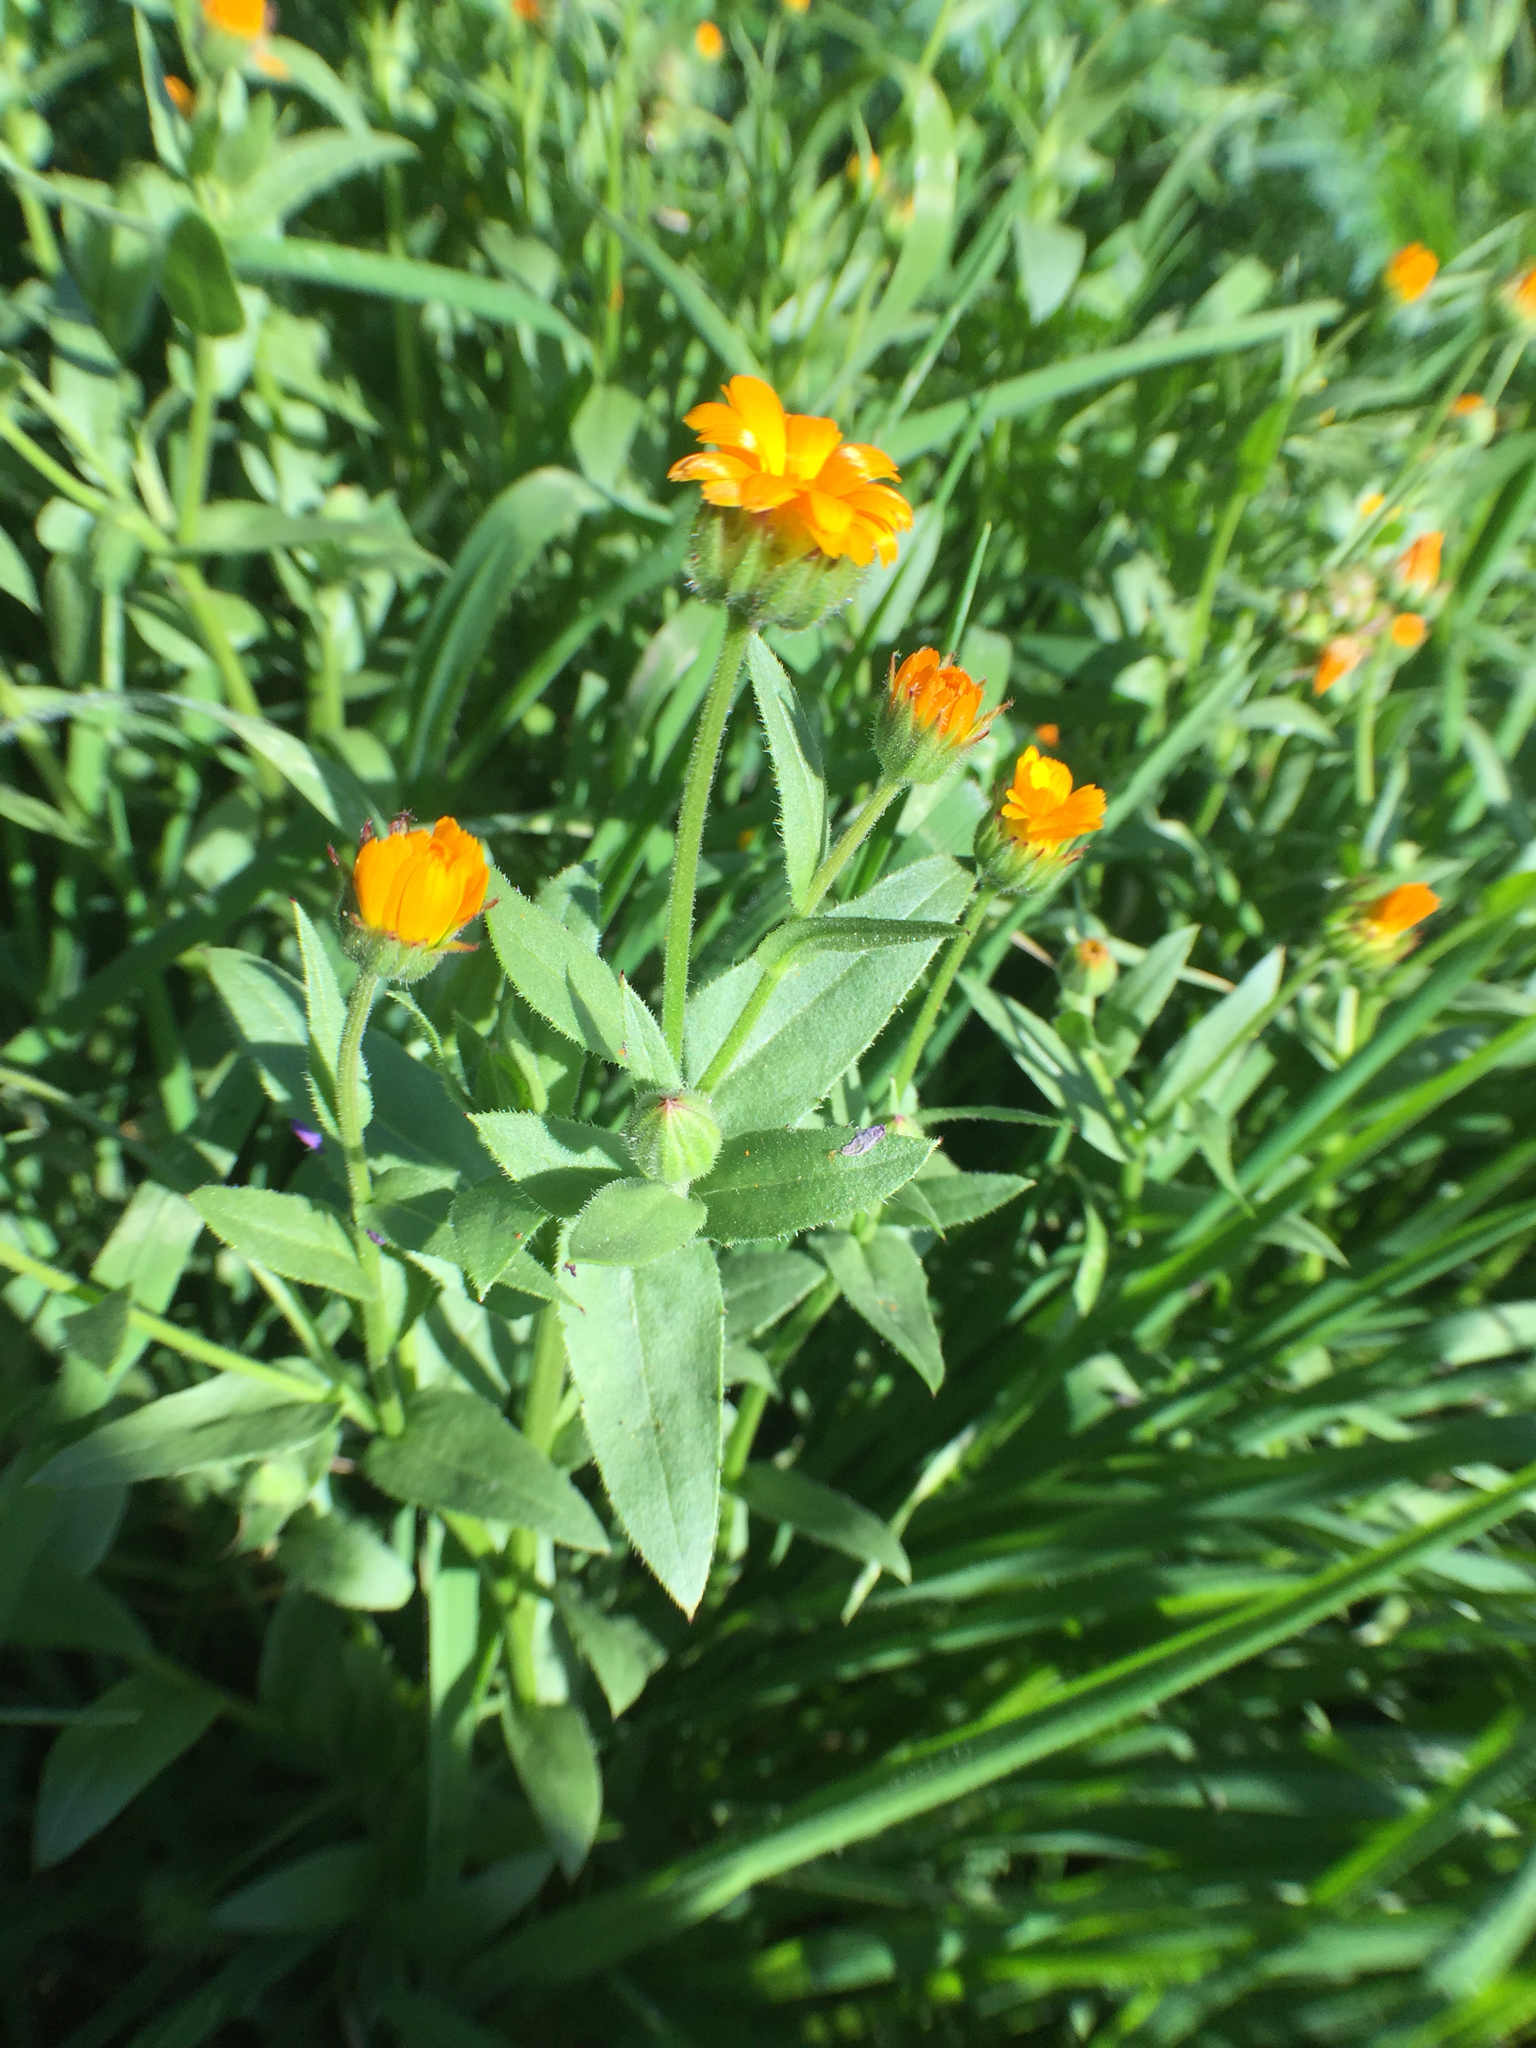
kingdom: Plantae
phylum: Tracheophyta
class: Magnoliopsida
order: Asterales
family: Asteraceae
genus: Calendula
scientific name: Calendula arvensis
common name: Field marigold
